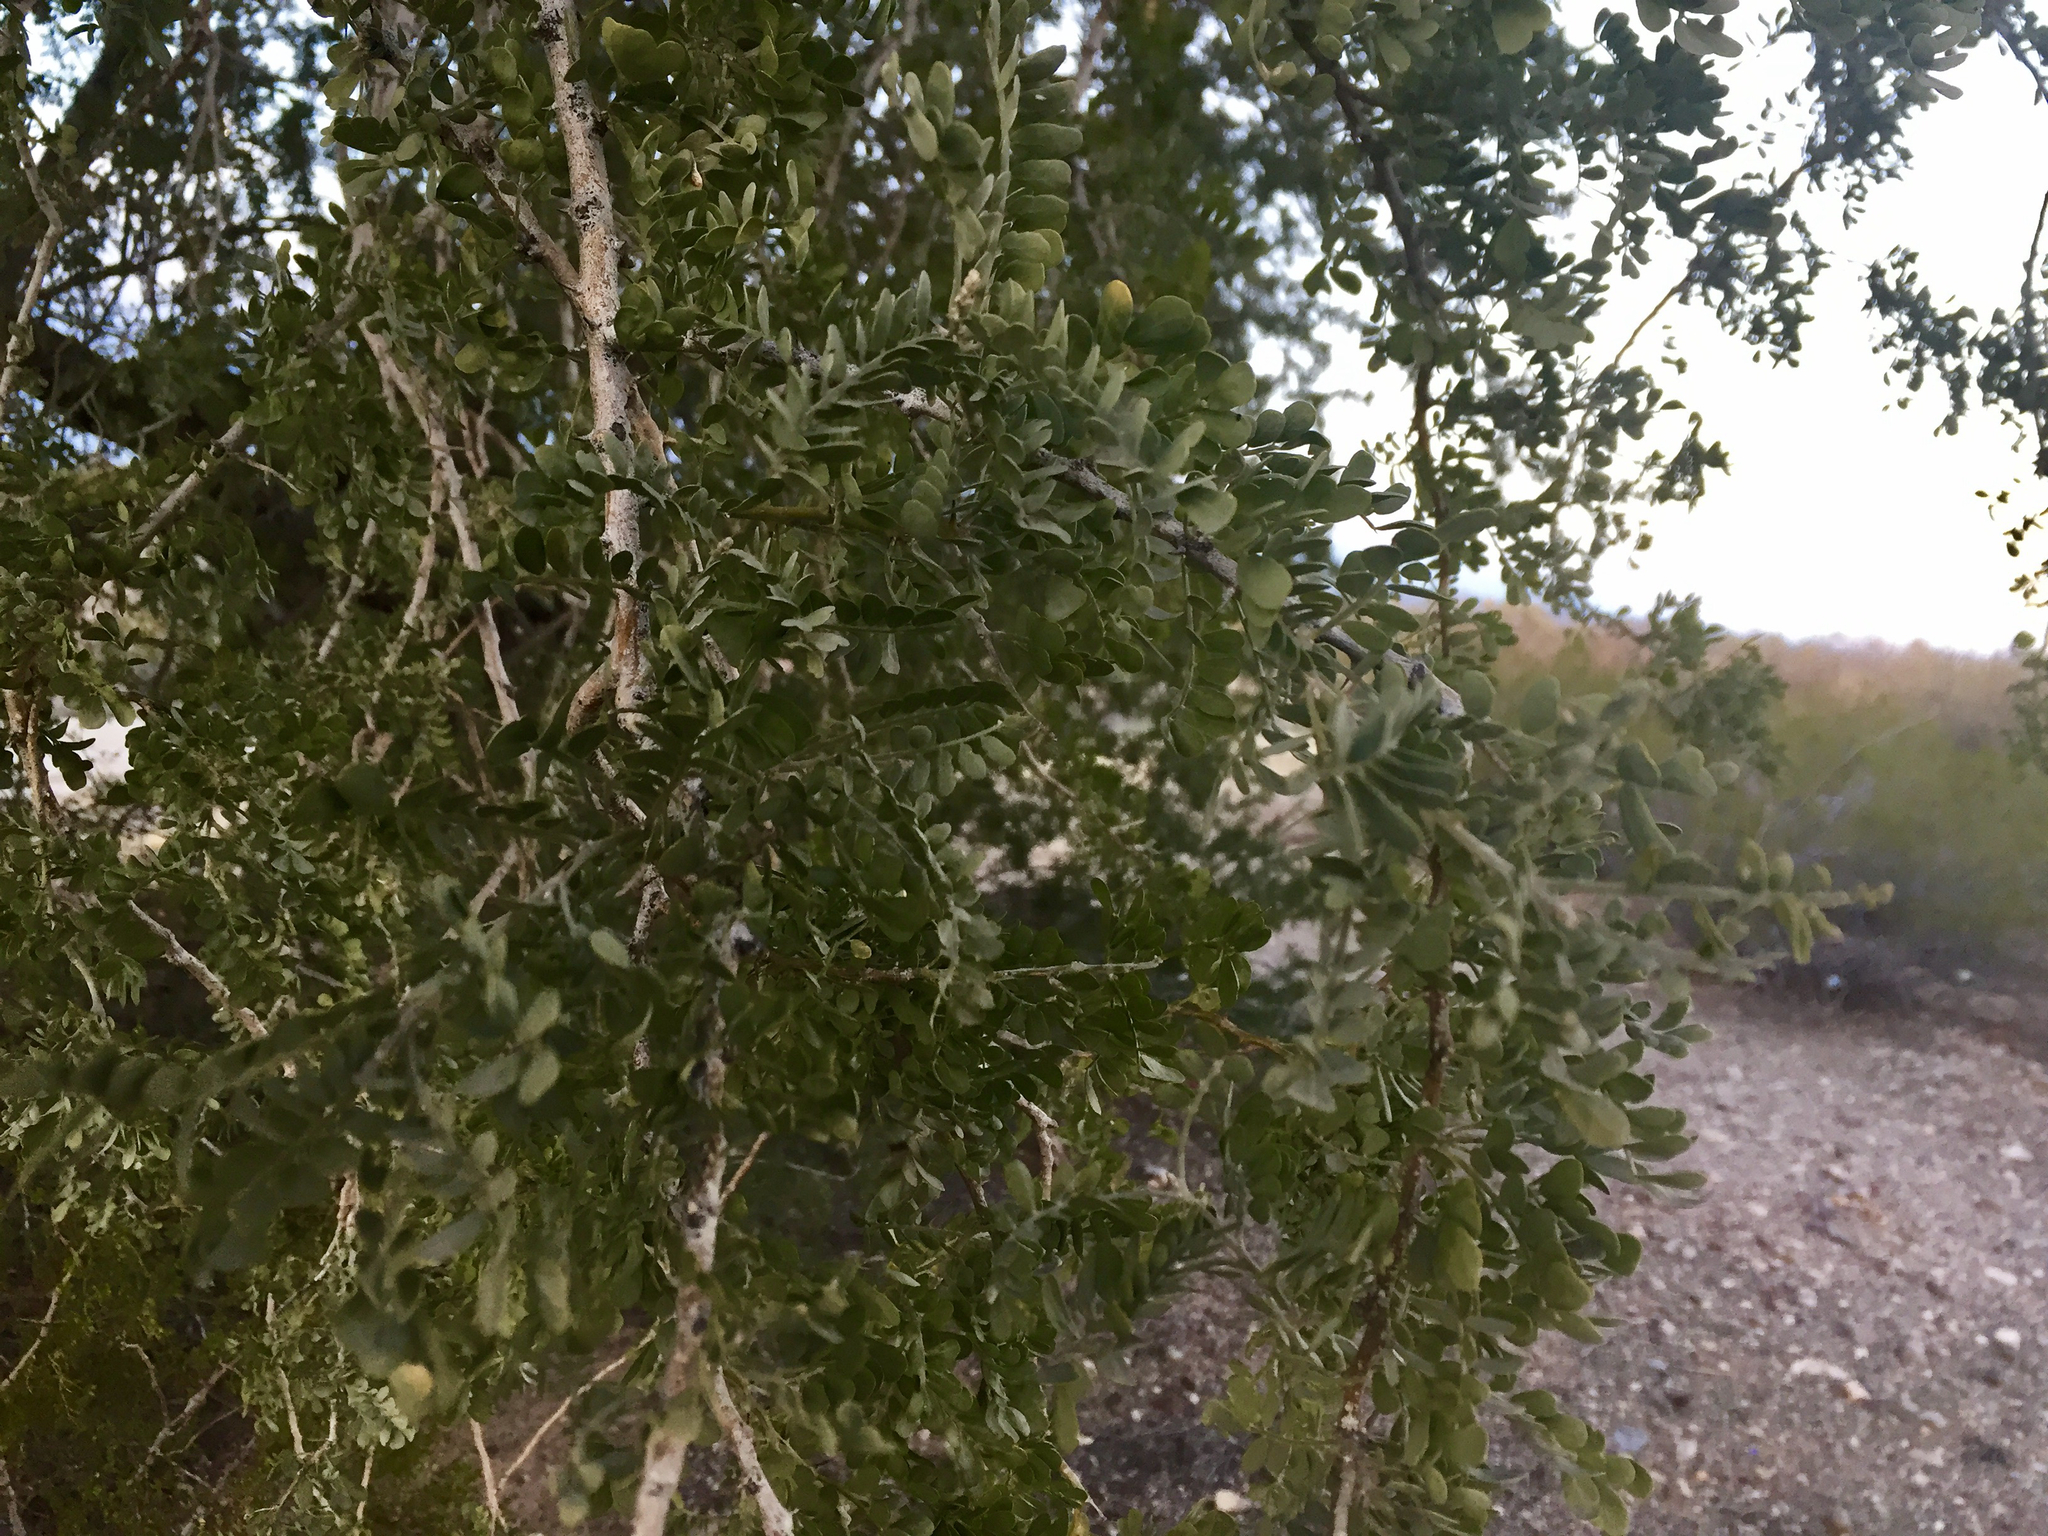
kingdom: Plantae
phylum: Tracheophyta
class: Magnoliopsida
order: Fabales
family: Fabaceae
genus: Olneya
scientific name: Olneya tesota
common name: Desert ironwood
